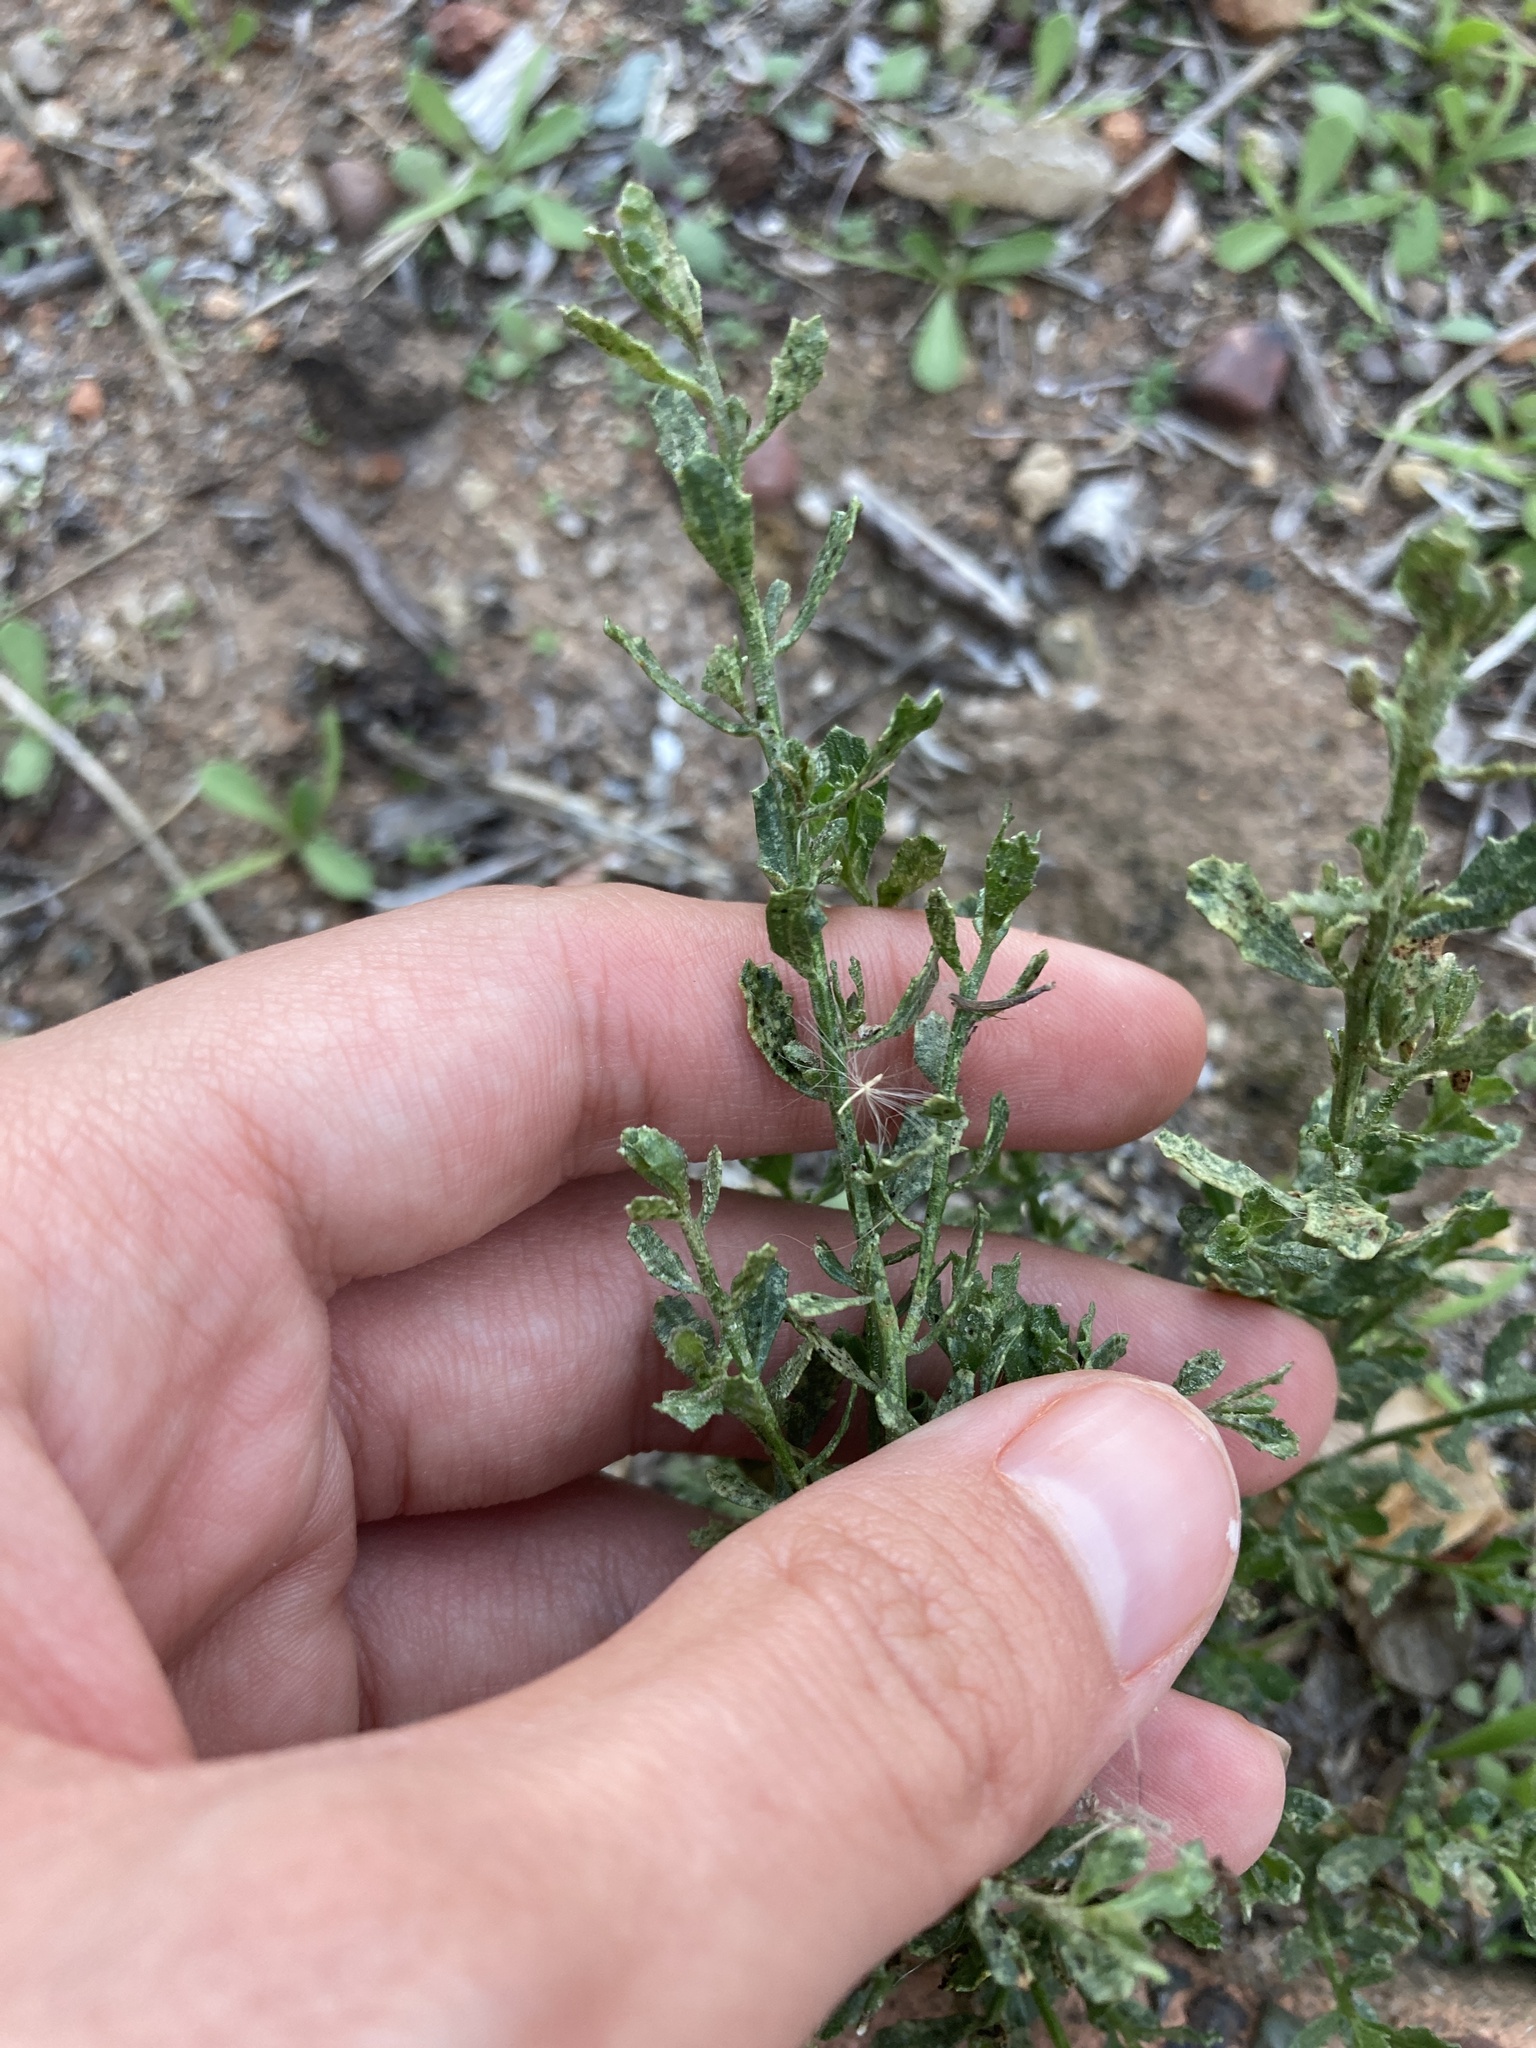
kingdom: Plantae
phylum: Tracheophyta
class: Magnoliopsida
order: Asterales
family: Asteraceae
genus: Baccharis
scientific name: Baccharis pilularis
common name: Coyotebrush
